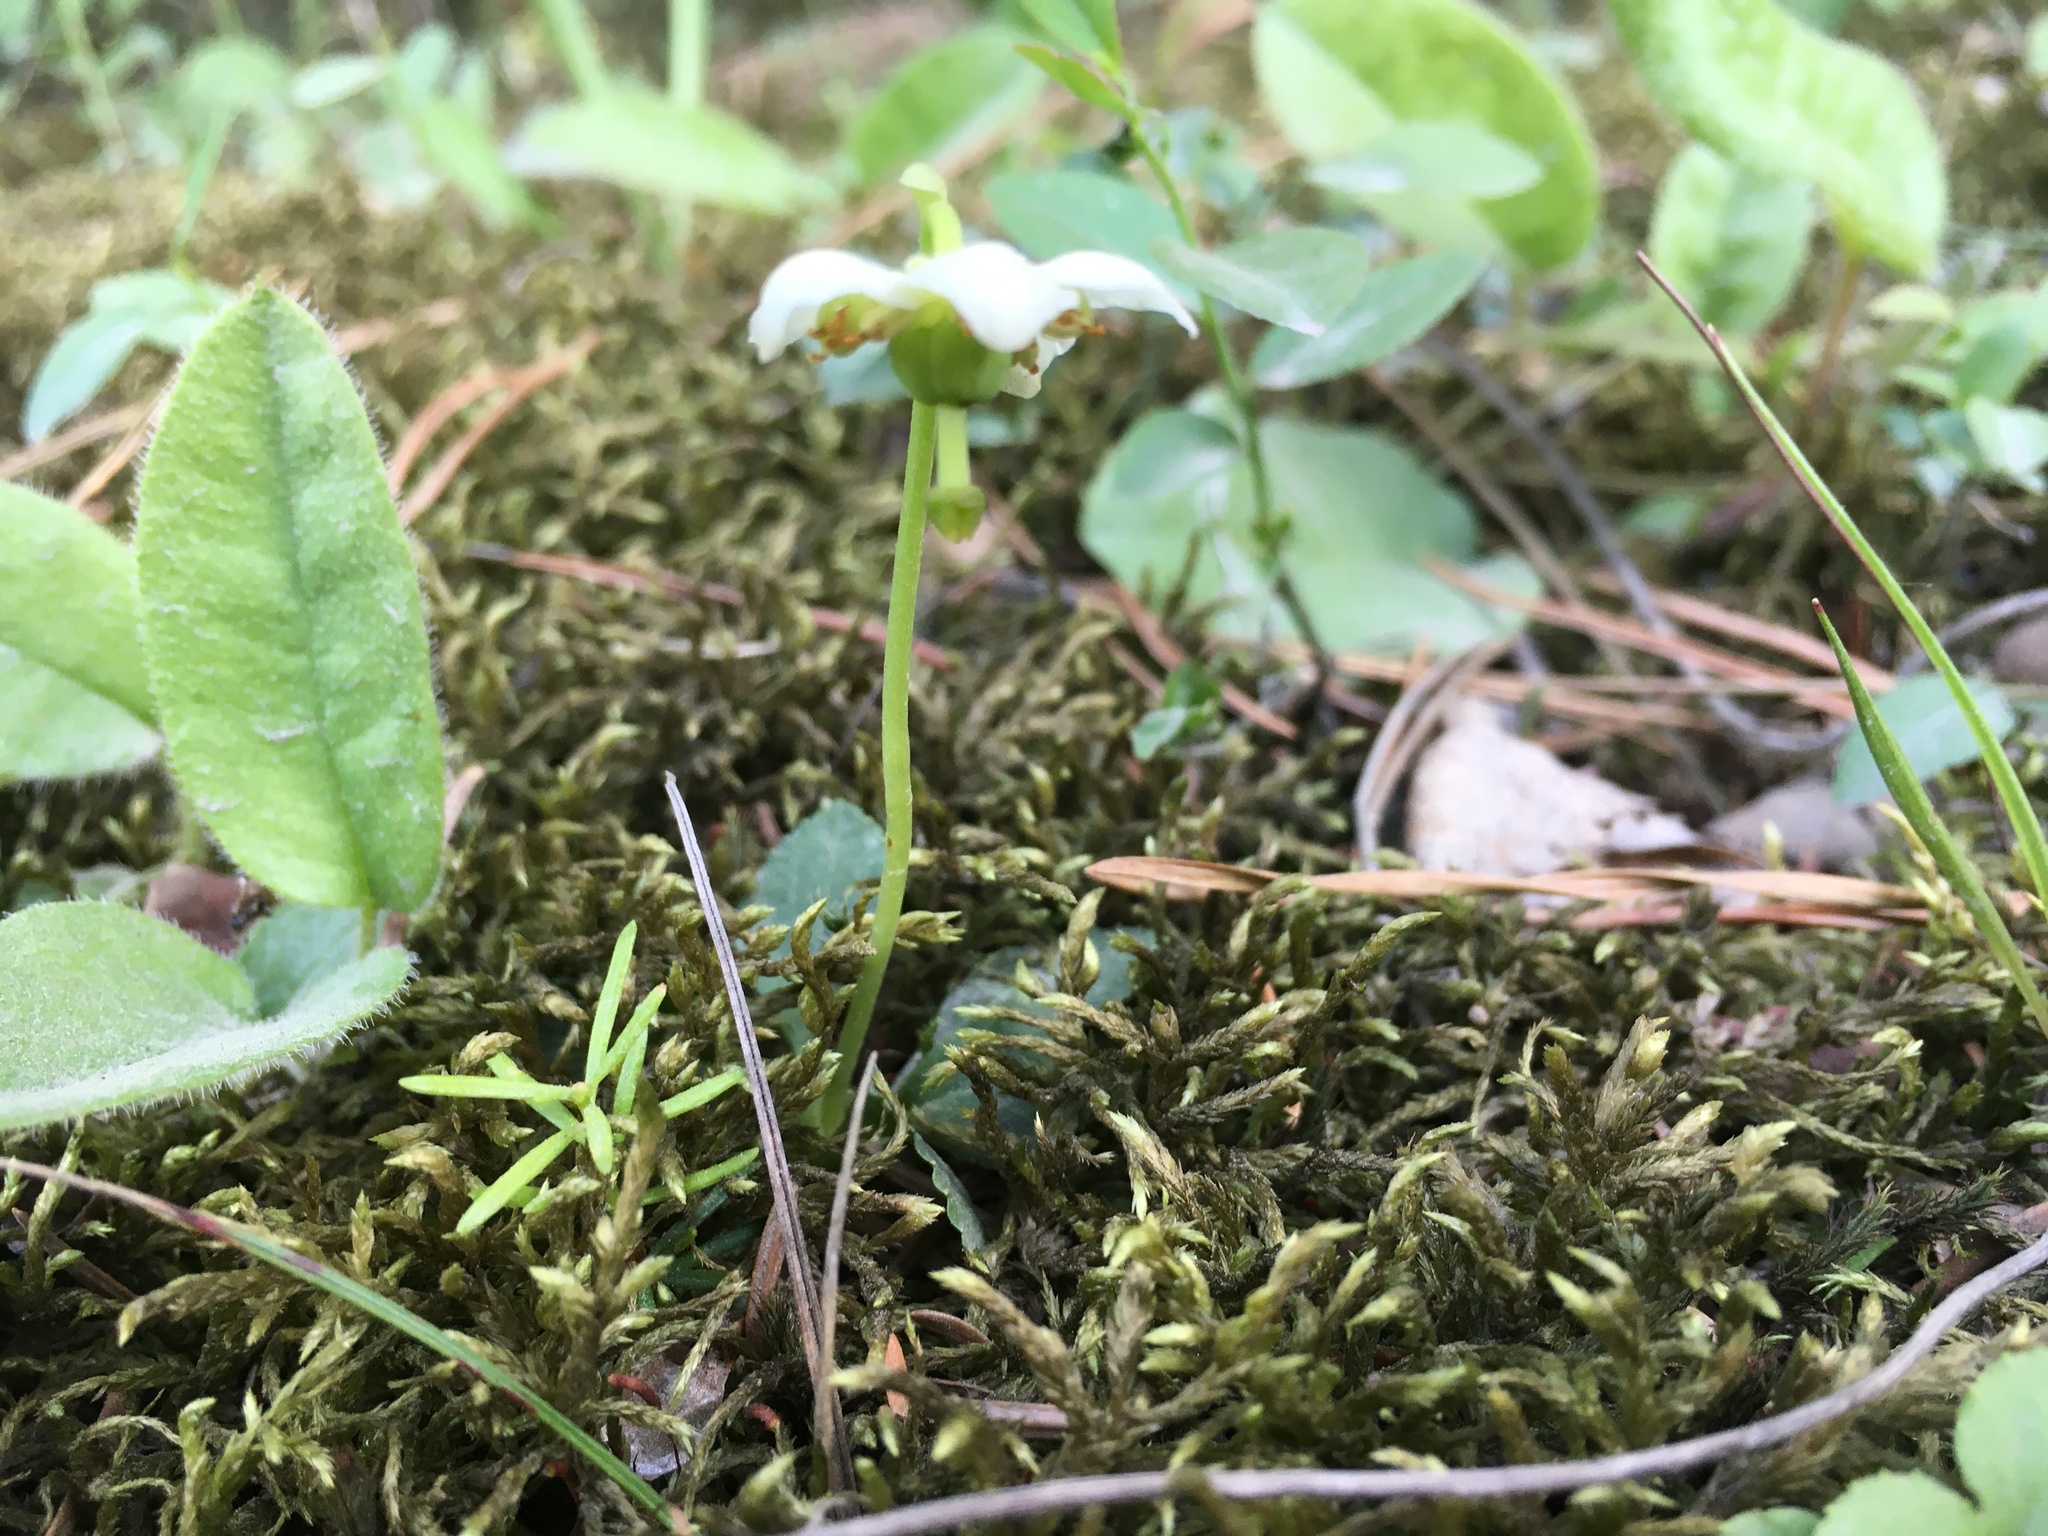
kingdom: Plantae
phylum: Tracheophyta
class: Magnoliopsida
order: Ericales
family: Ericaceae
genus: Moneses
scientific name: Moneses uniflora
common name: One-flowered wintergreen
